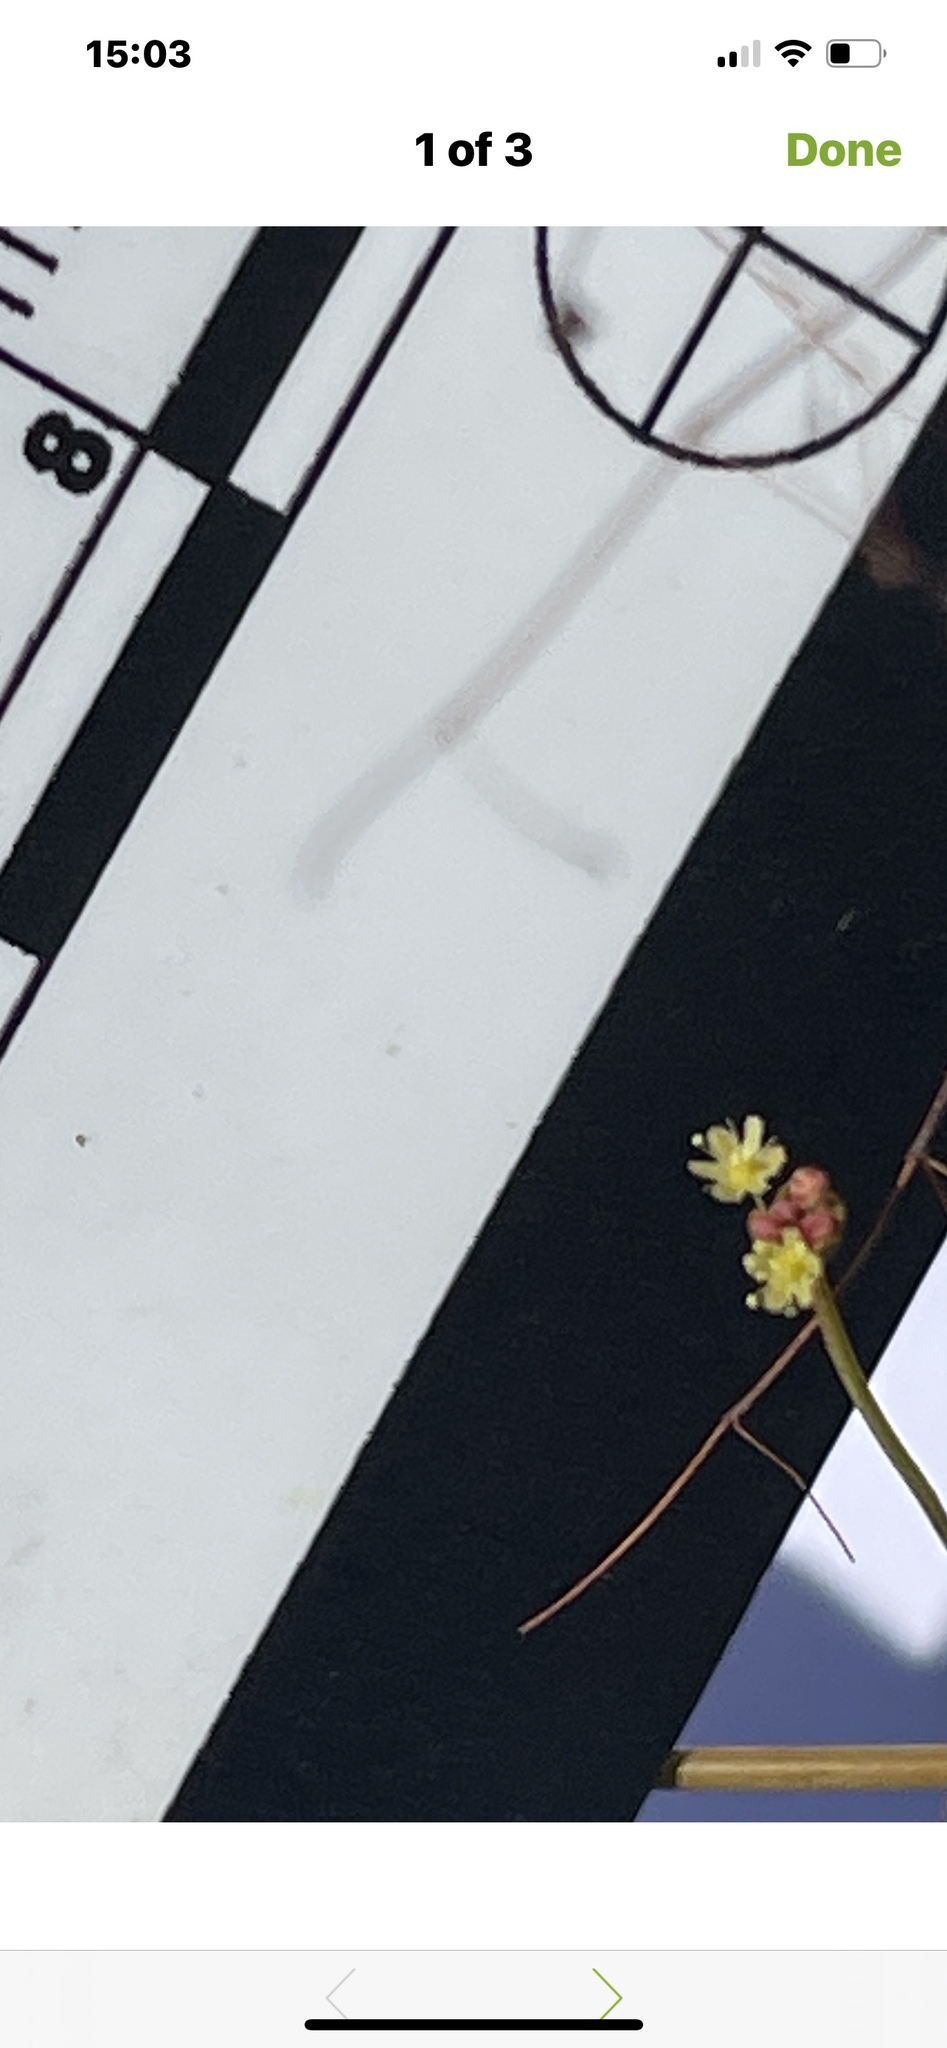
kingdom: Plantae
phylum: Tracheophyta
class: Magnoliopsida
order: Caryophyllales
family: Polygonaceae
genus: Eriogonum
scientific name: Eriogonum thomasii
